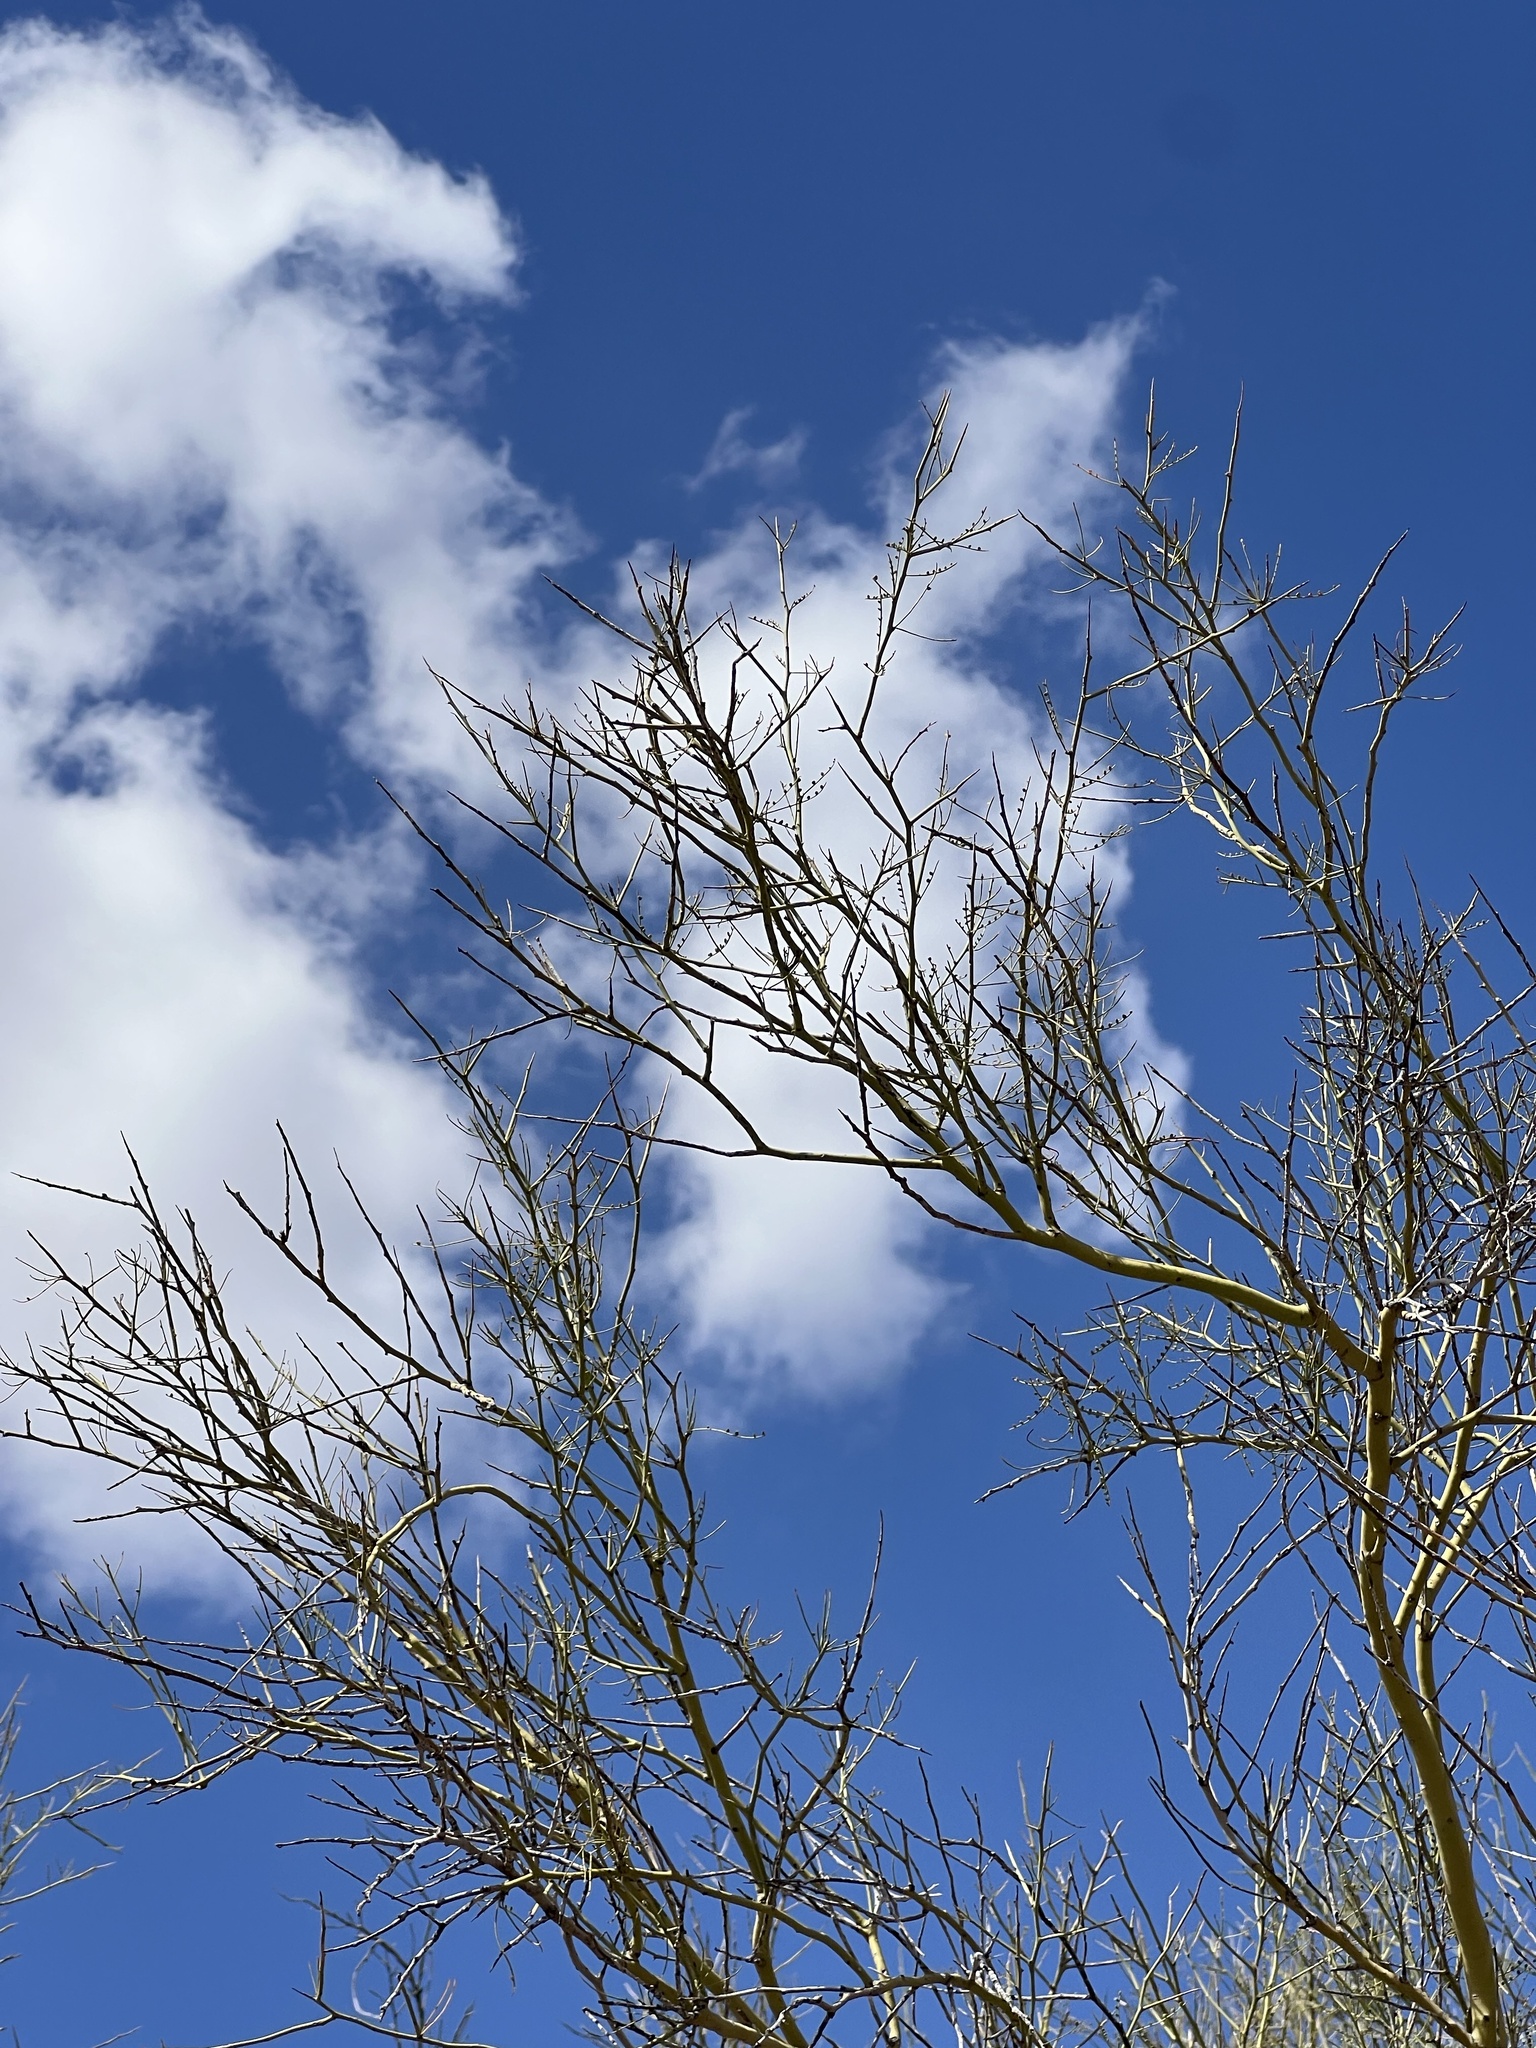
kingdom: Plantae
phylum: Tracheophyta
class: Magnoliopsida
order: Fabales
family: Fabaceae
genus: Parkinsonia
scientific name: Parkinsonia microphylla
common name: Yellow paloverde
